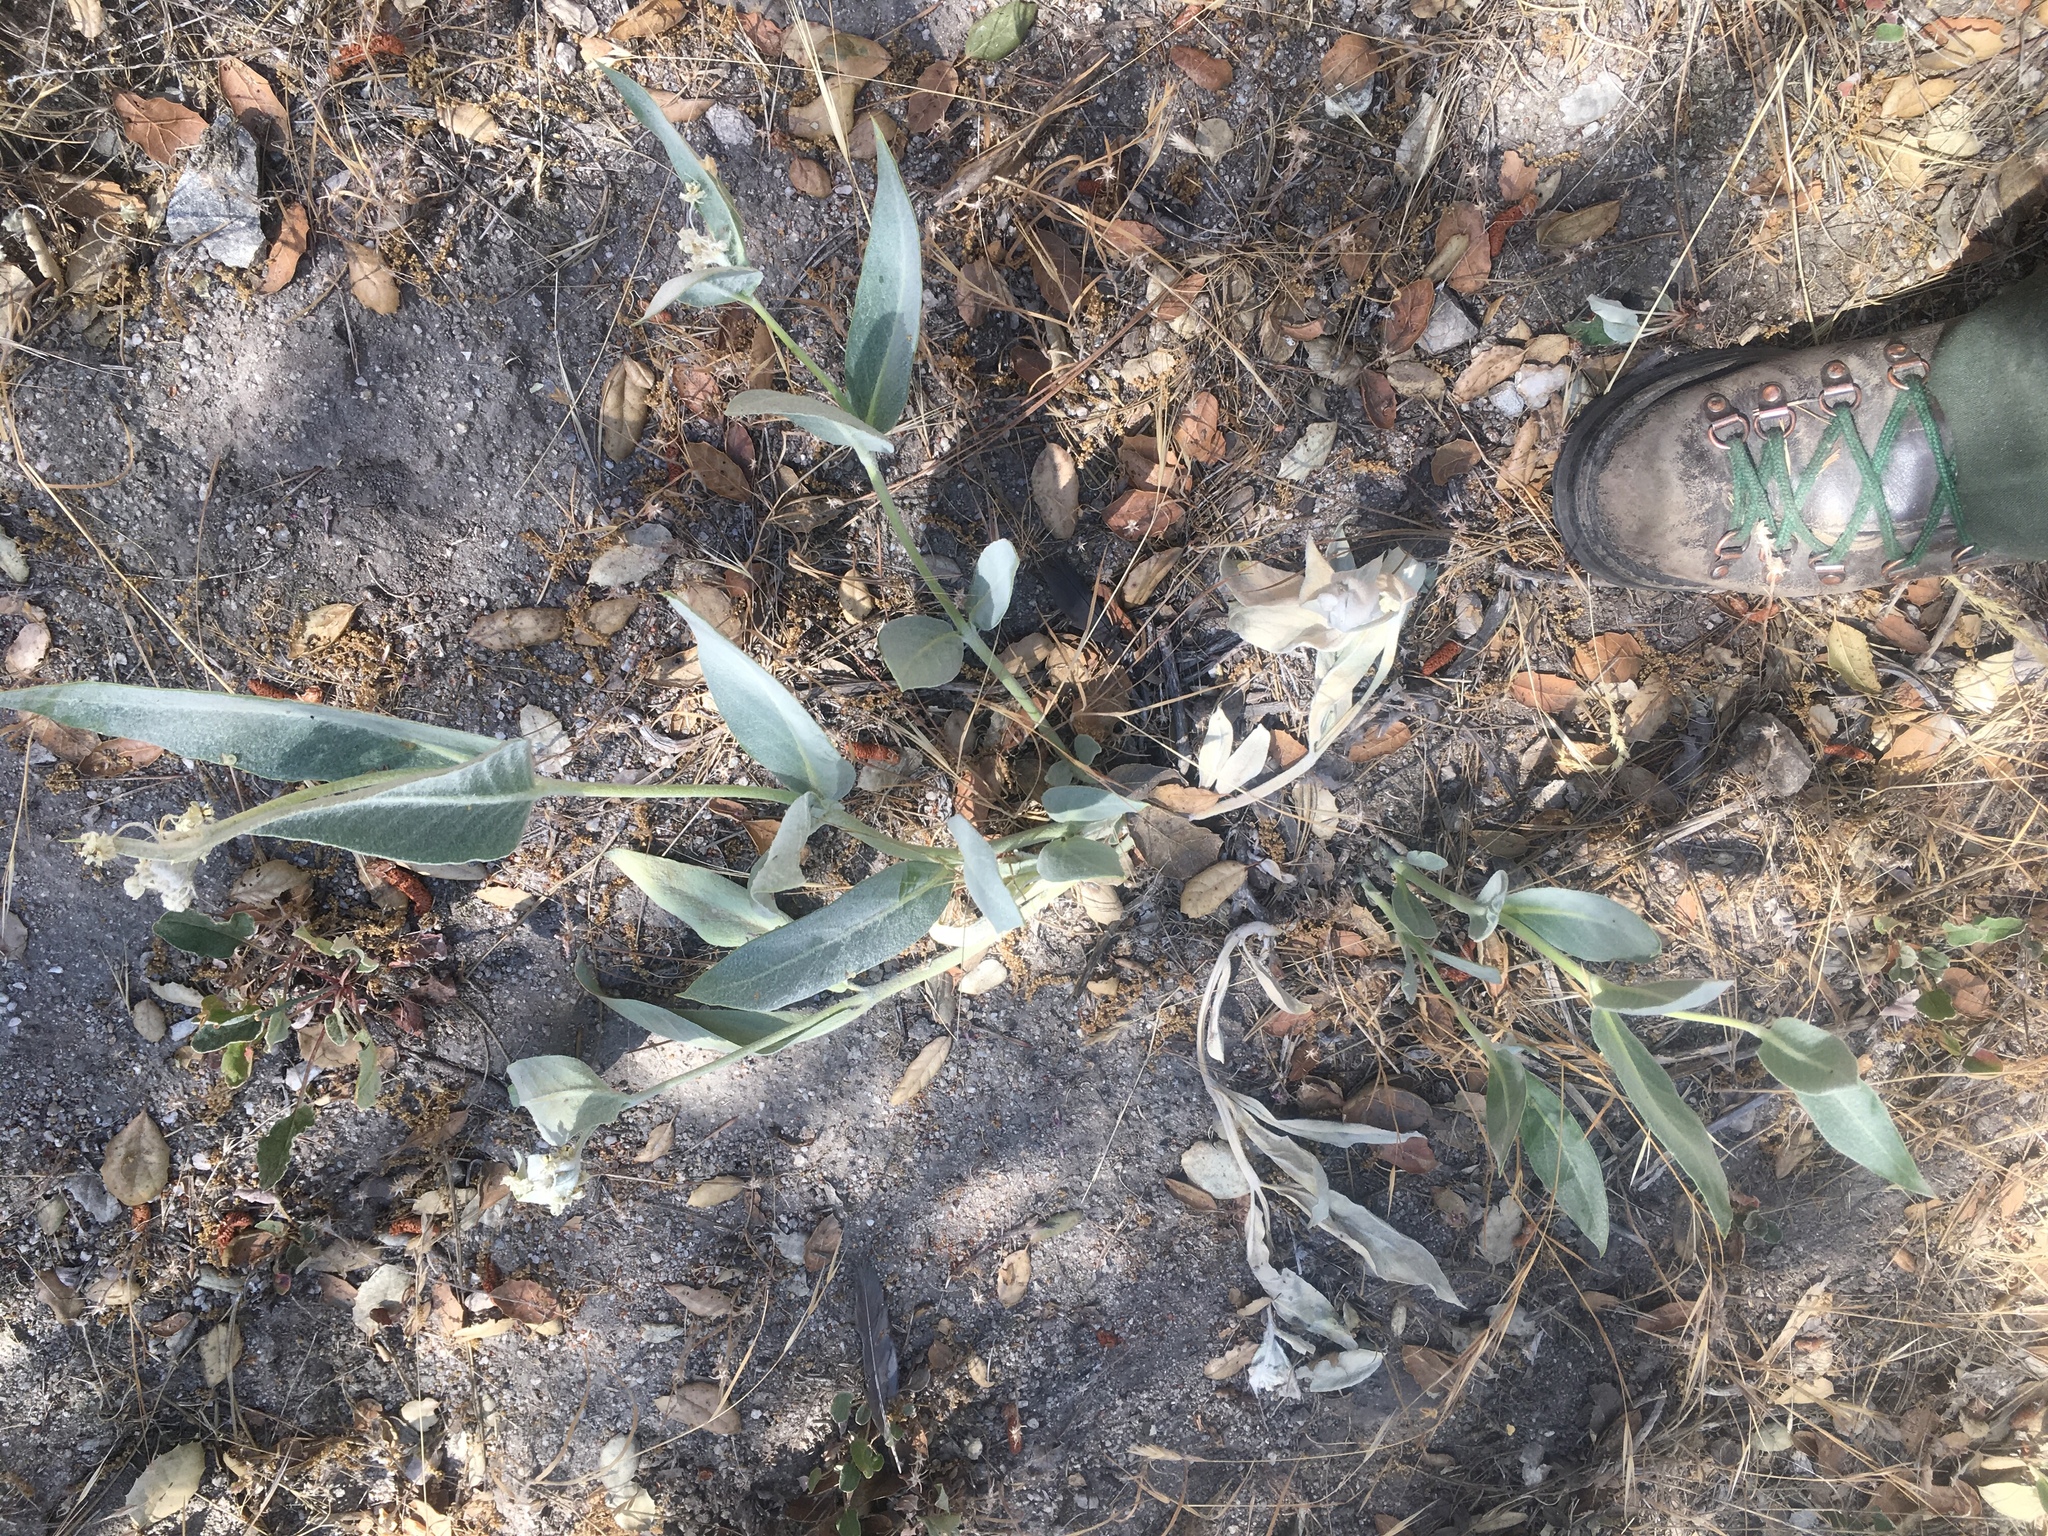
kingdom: Plantae
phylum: Tracheophyta
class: Magnoliopsida
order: Gentianales
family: Apocynaceae
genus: Asclepias
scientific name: Asclepias vestita
